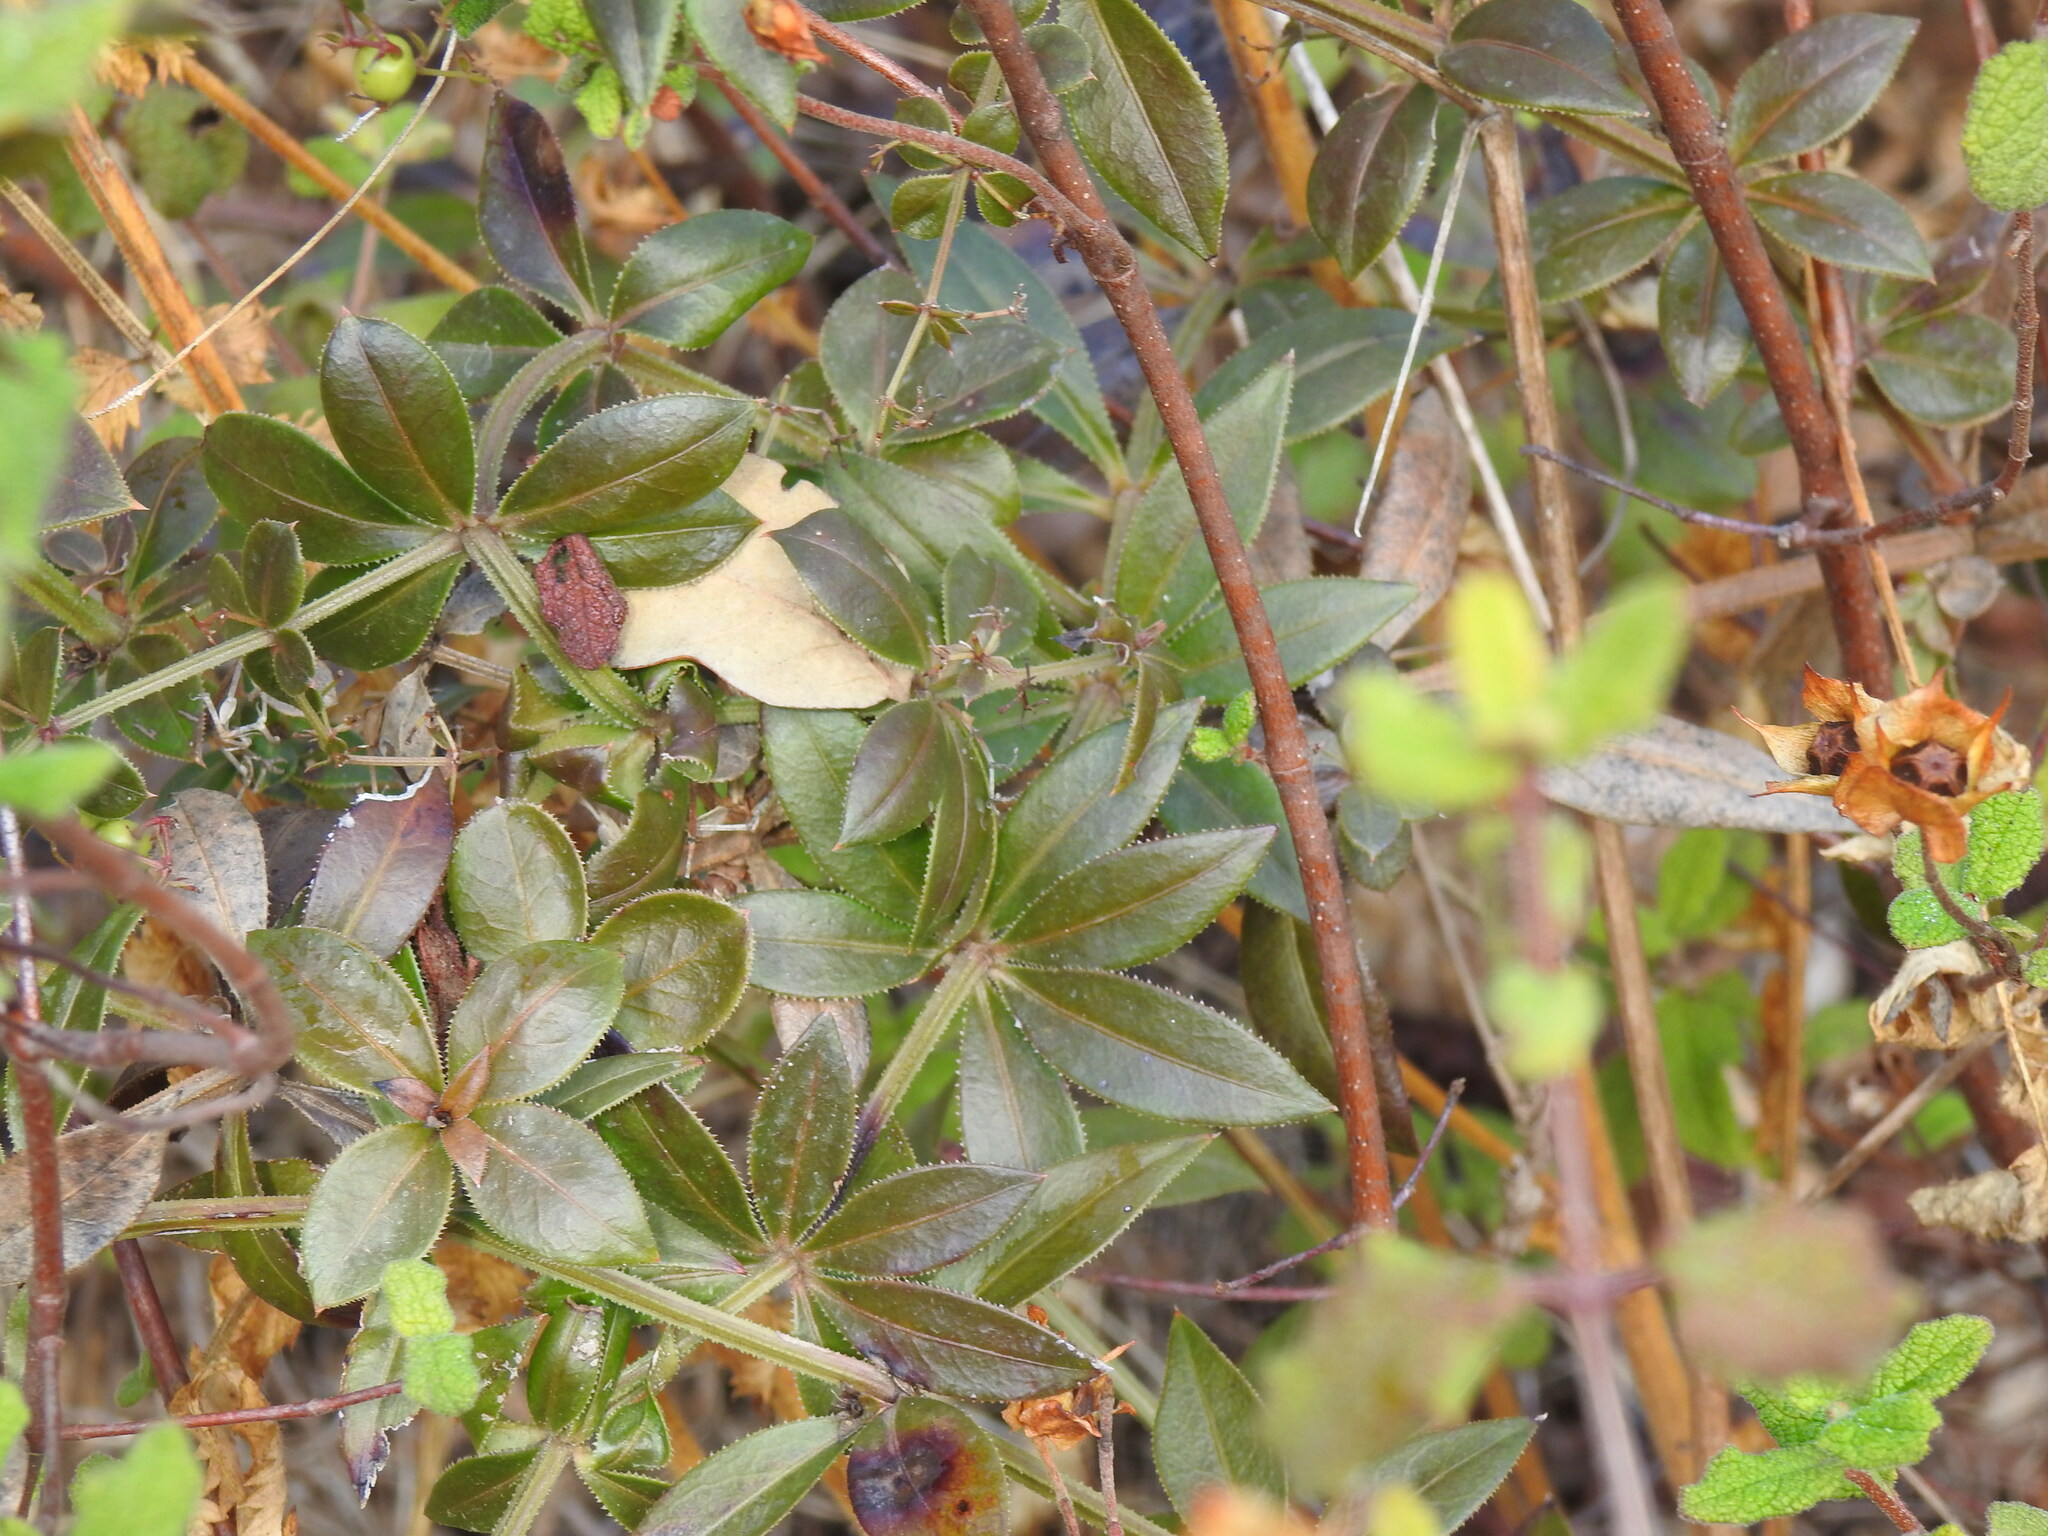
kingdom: Plantae
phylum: Tracheophyta
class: Magnoliopsida
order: Gentianales
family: Rubiaceae
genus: Rubia
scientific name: Rubia peregrina
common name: Wild madder
